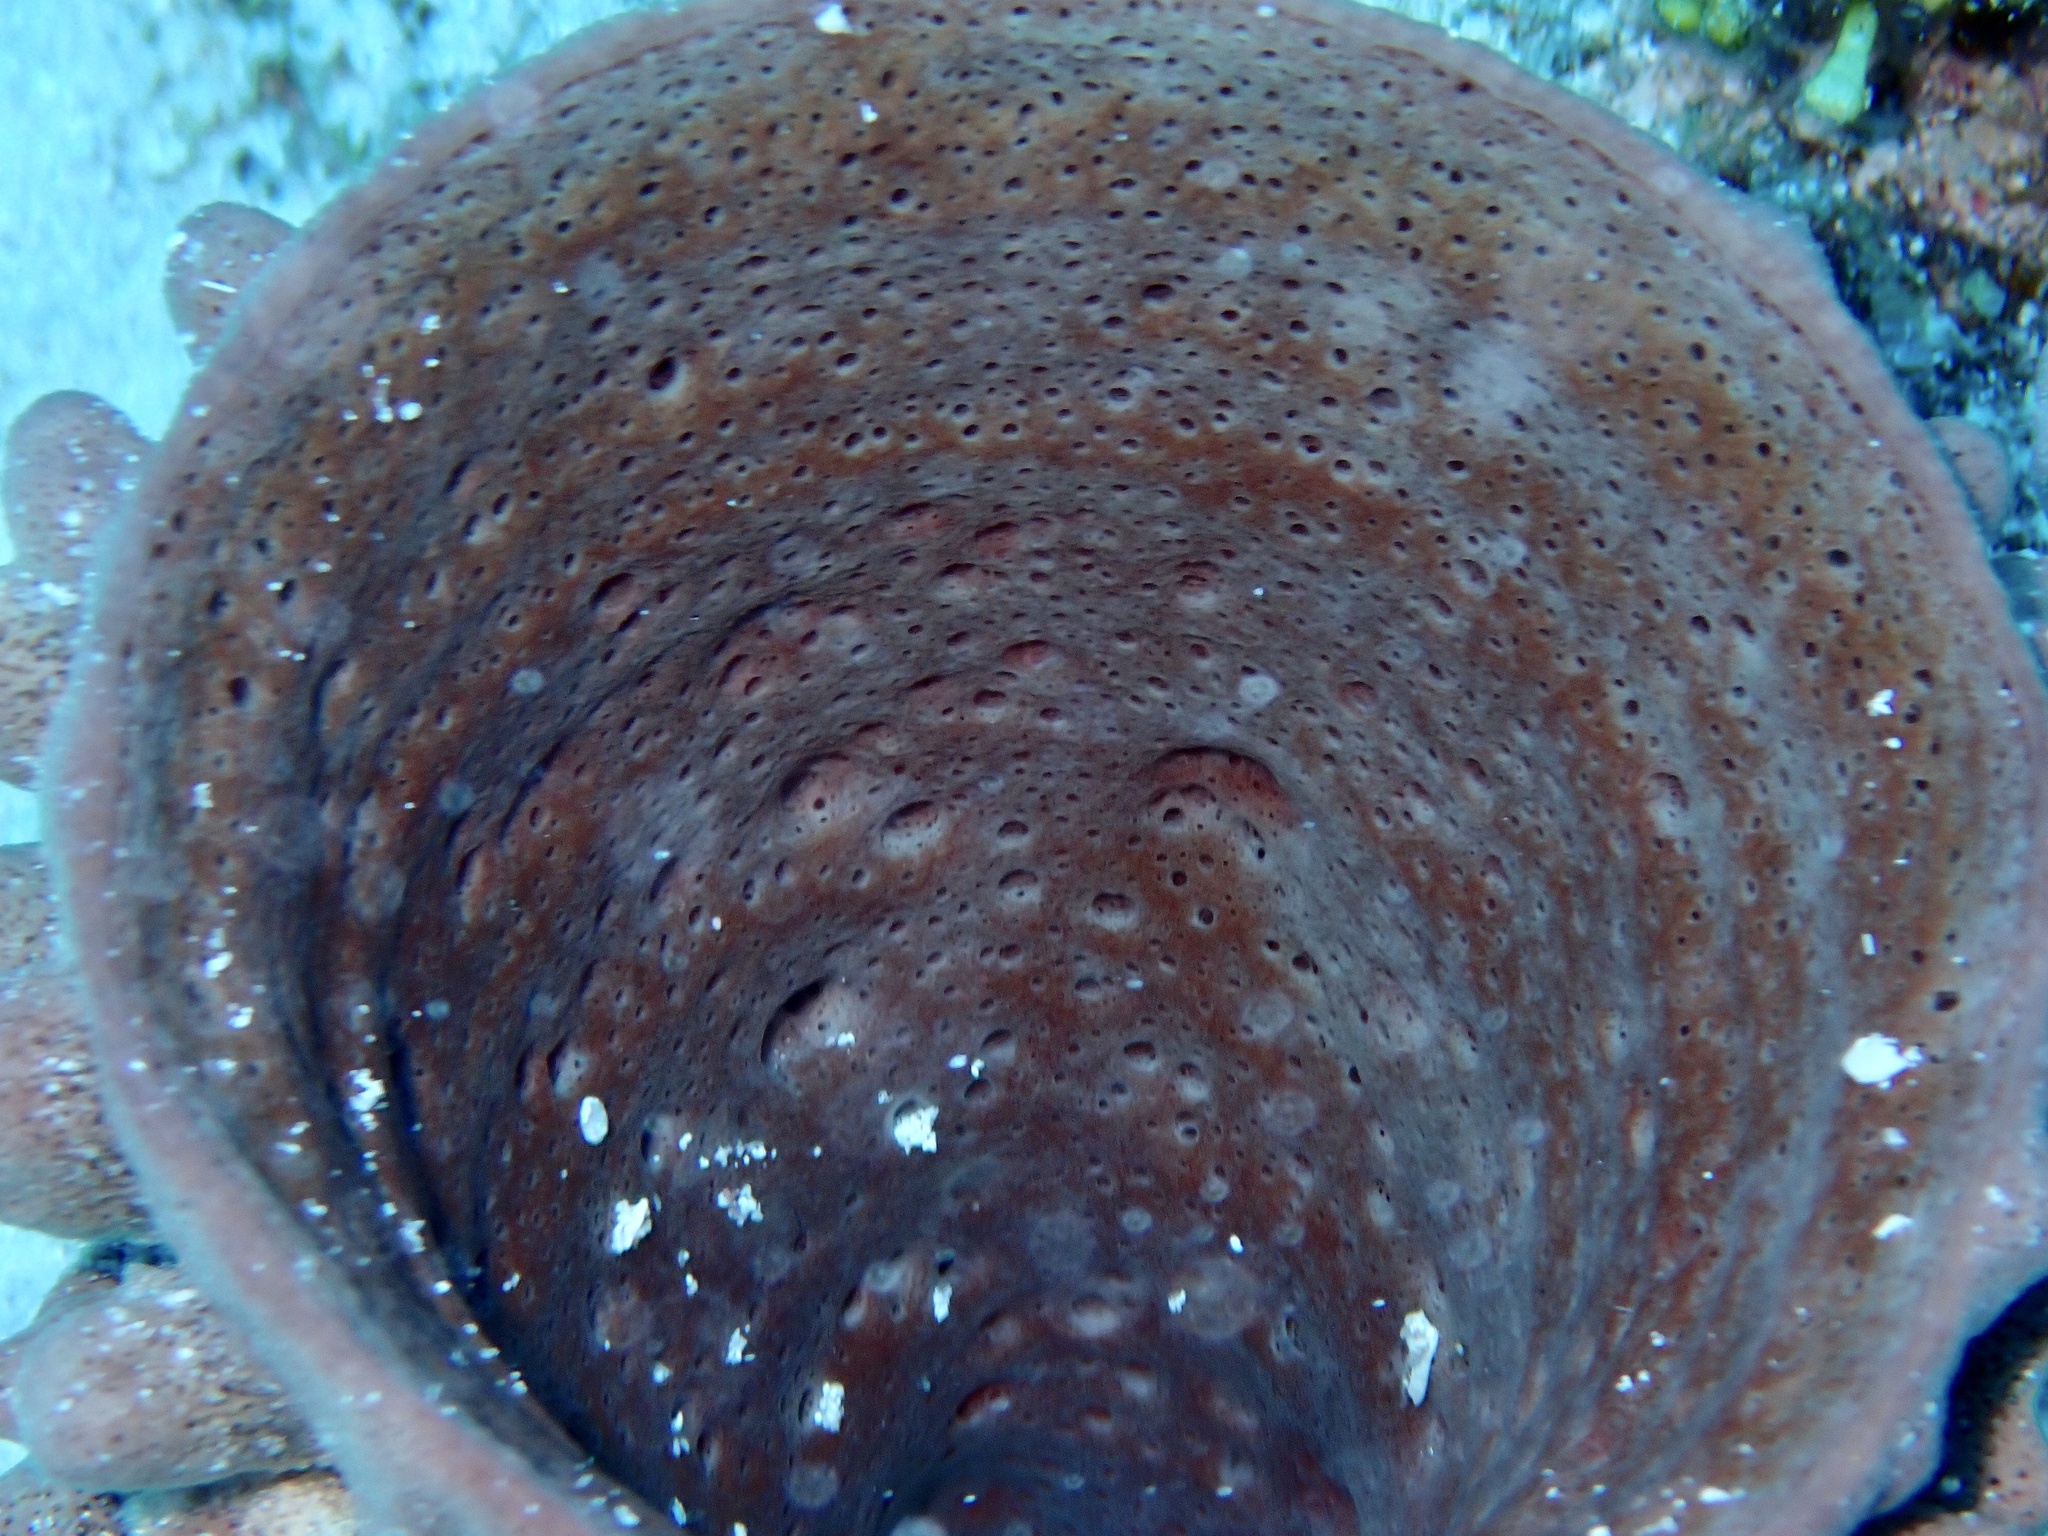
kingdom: Animalia
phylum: Porifera
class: Demospongiae
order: Haplosclerida
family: Callyspongiidae
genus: Callyspongia
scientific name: Callyspongia crassa
